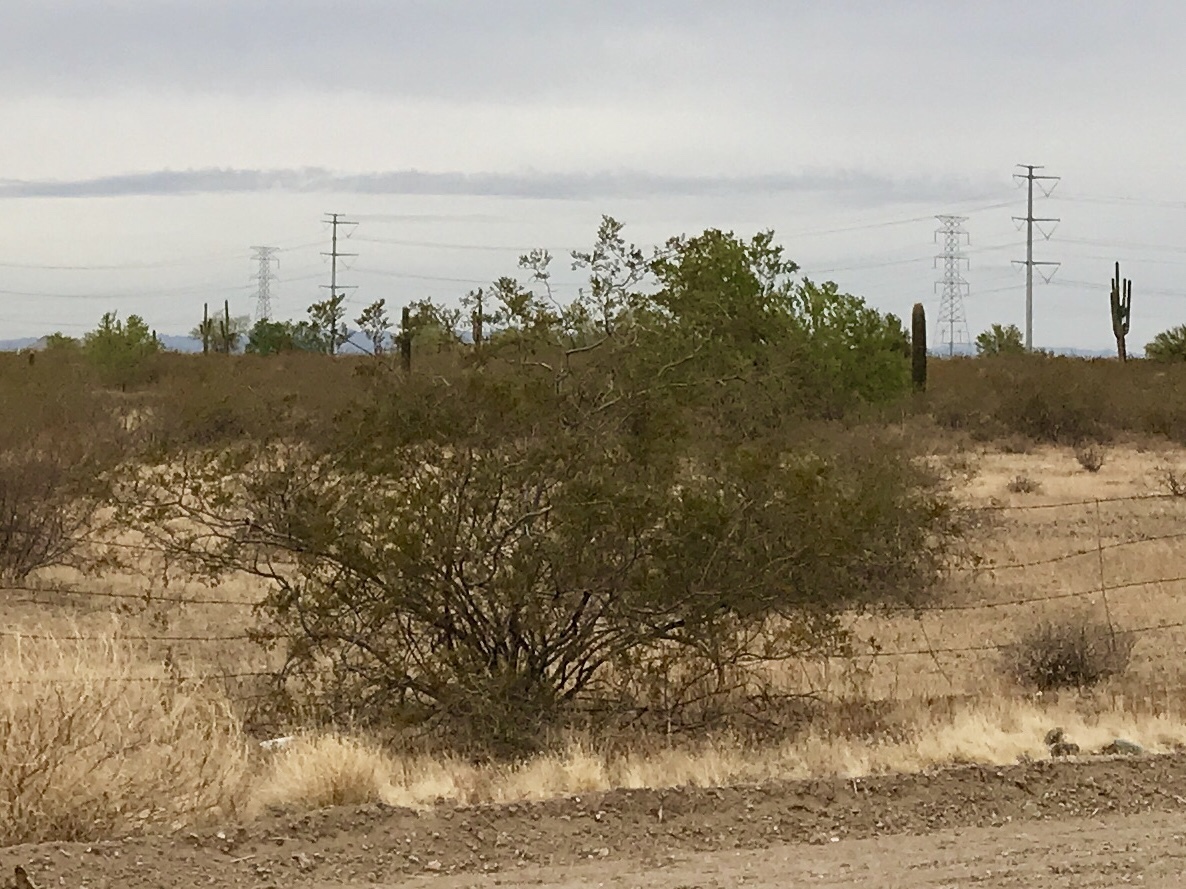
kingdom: Plantae
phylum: Tracheophyta
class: Magnoliopsida
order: Zygophyllales
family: Zygophyllaceae
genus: Larrea
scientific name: Larrea tridentata
